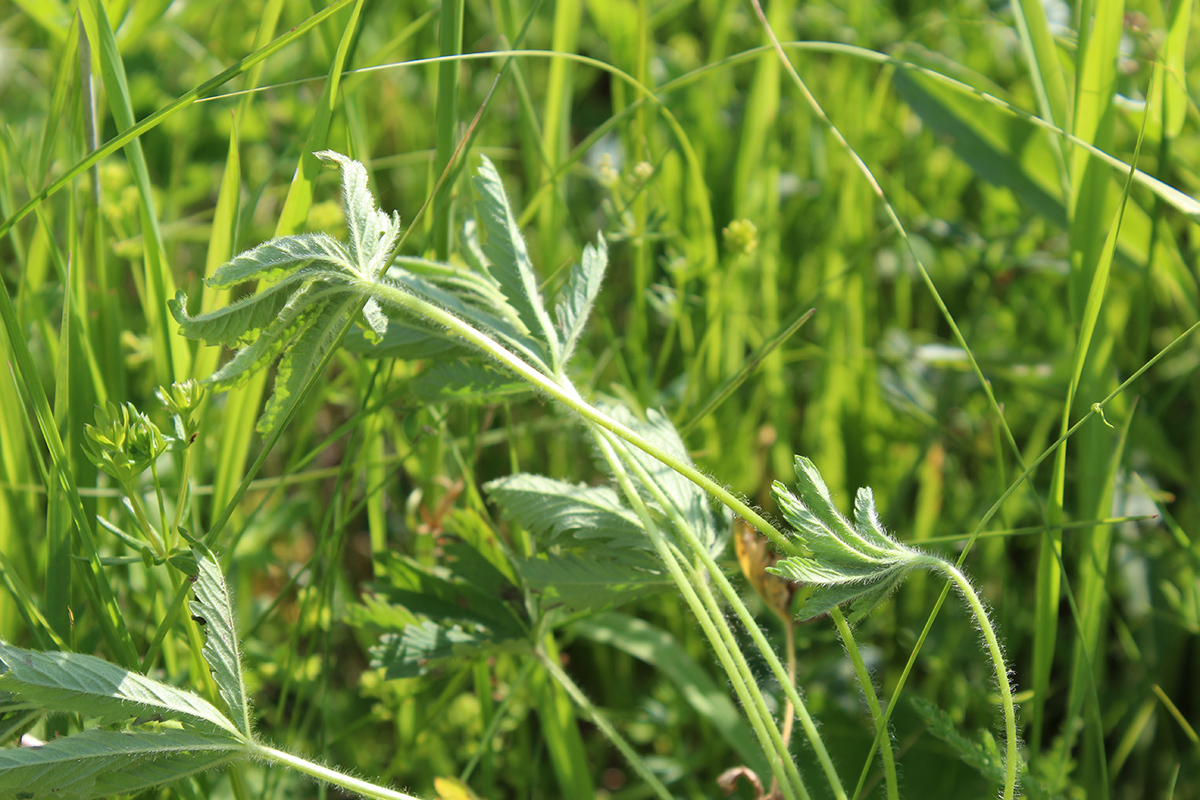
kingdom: Plantae
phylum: Tracheophyta
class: Magnoliopsida
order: Rosales
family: Rosaceae
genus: Potentilla
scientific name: Potentilla thuringiaca
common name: European cinquefoil
